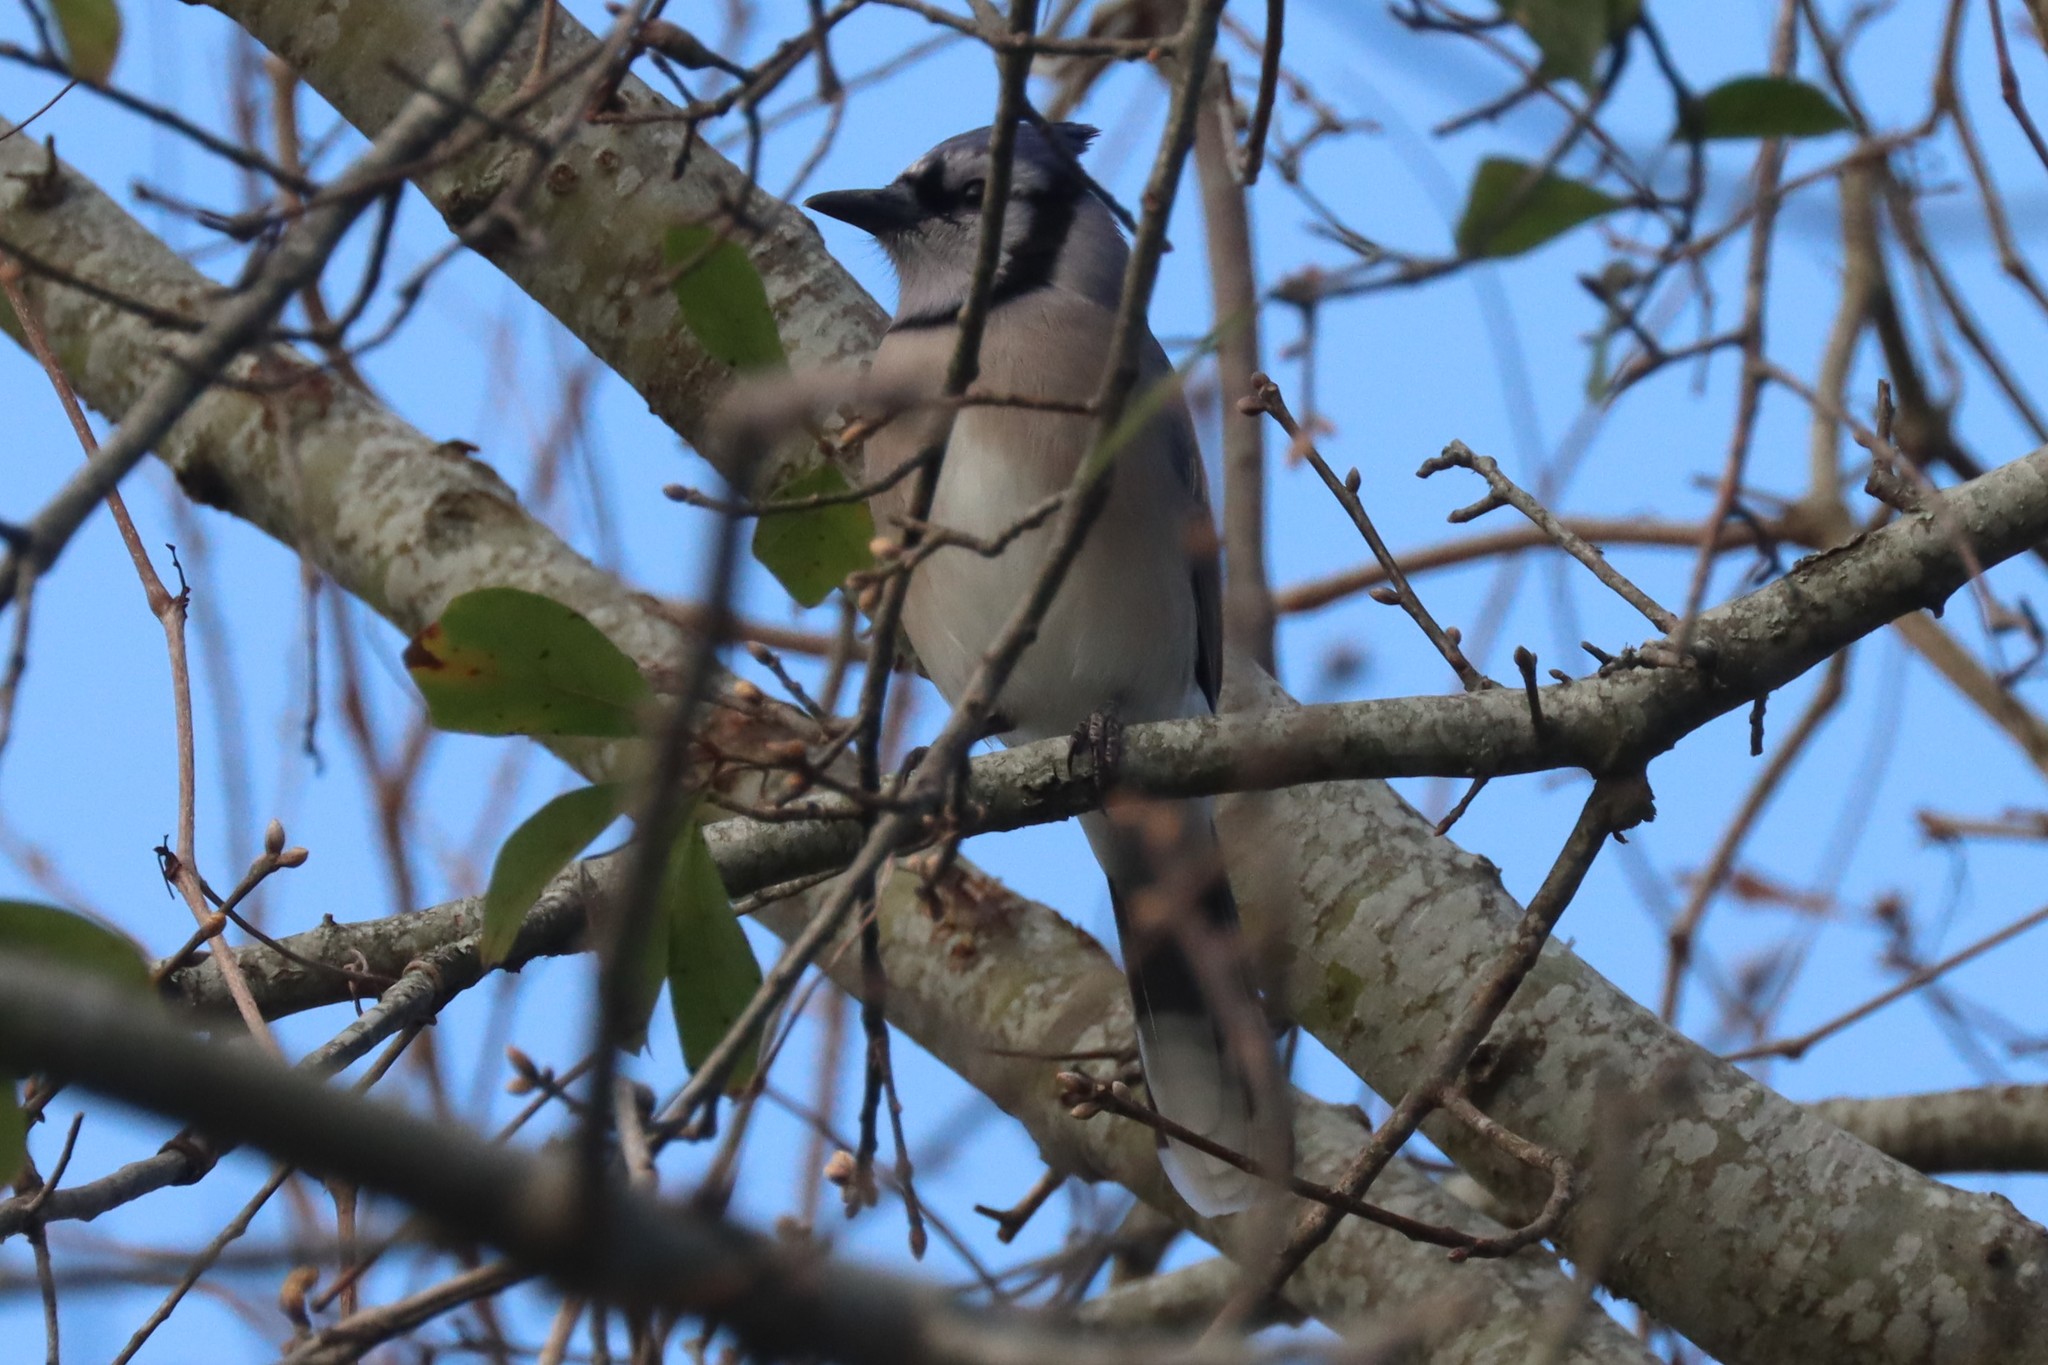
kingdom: Animalia
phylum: Chordata
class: Aves
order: Passeriformes
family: Corvidae
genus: Cyanocitta
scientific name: Cyanocitta cristata
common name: Blue jay
